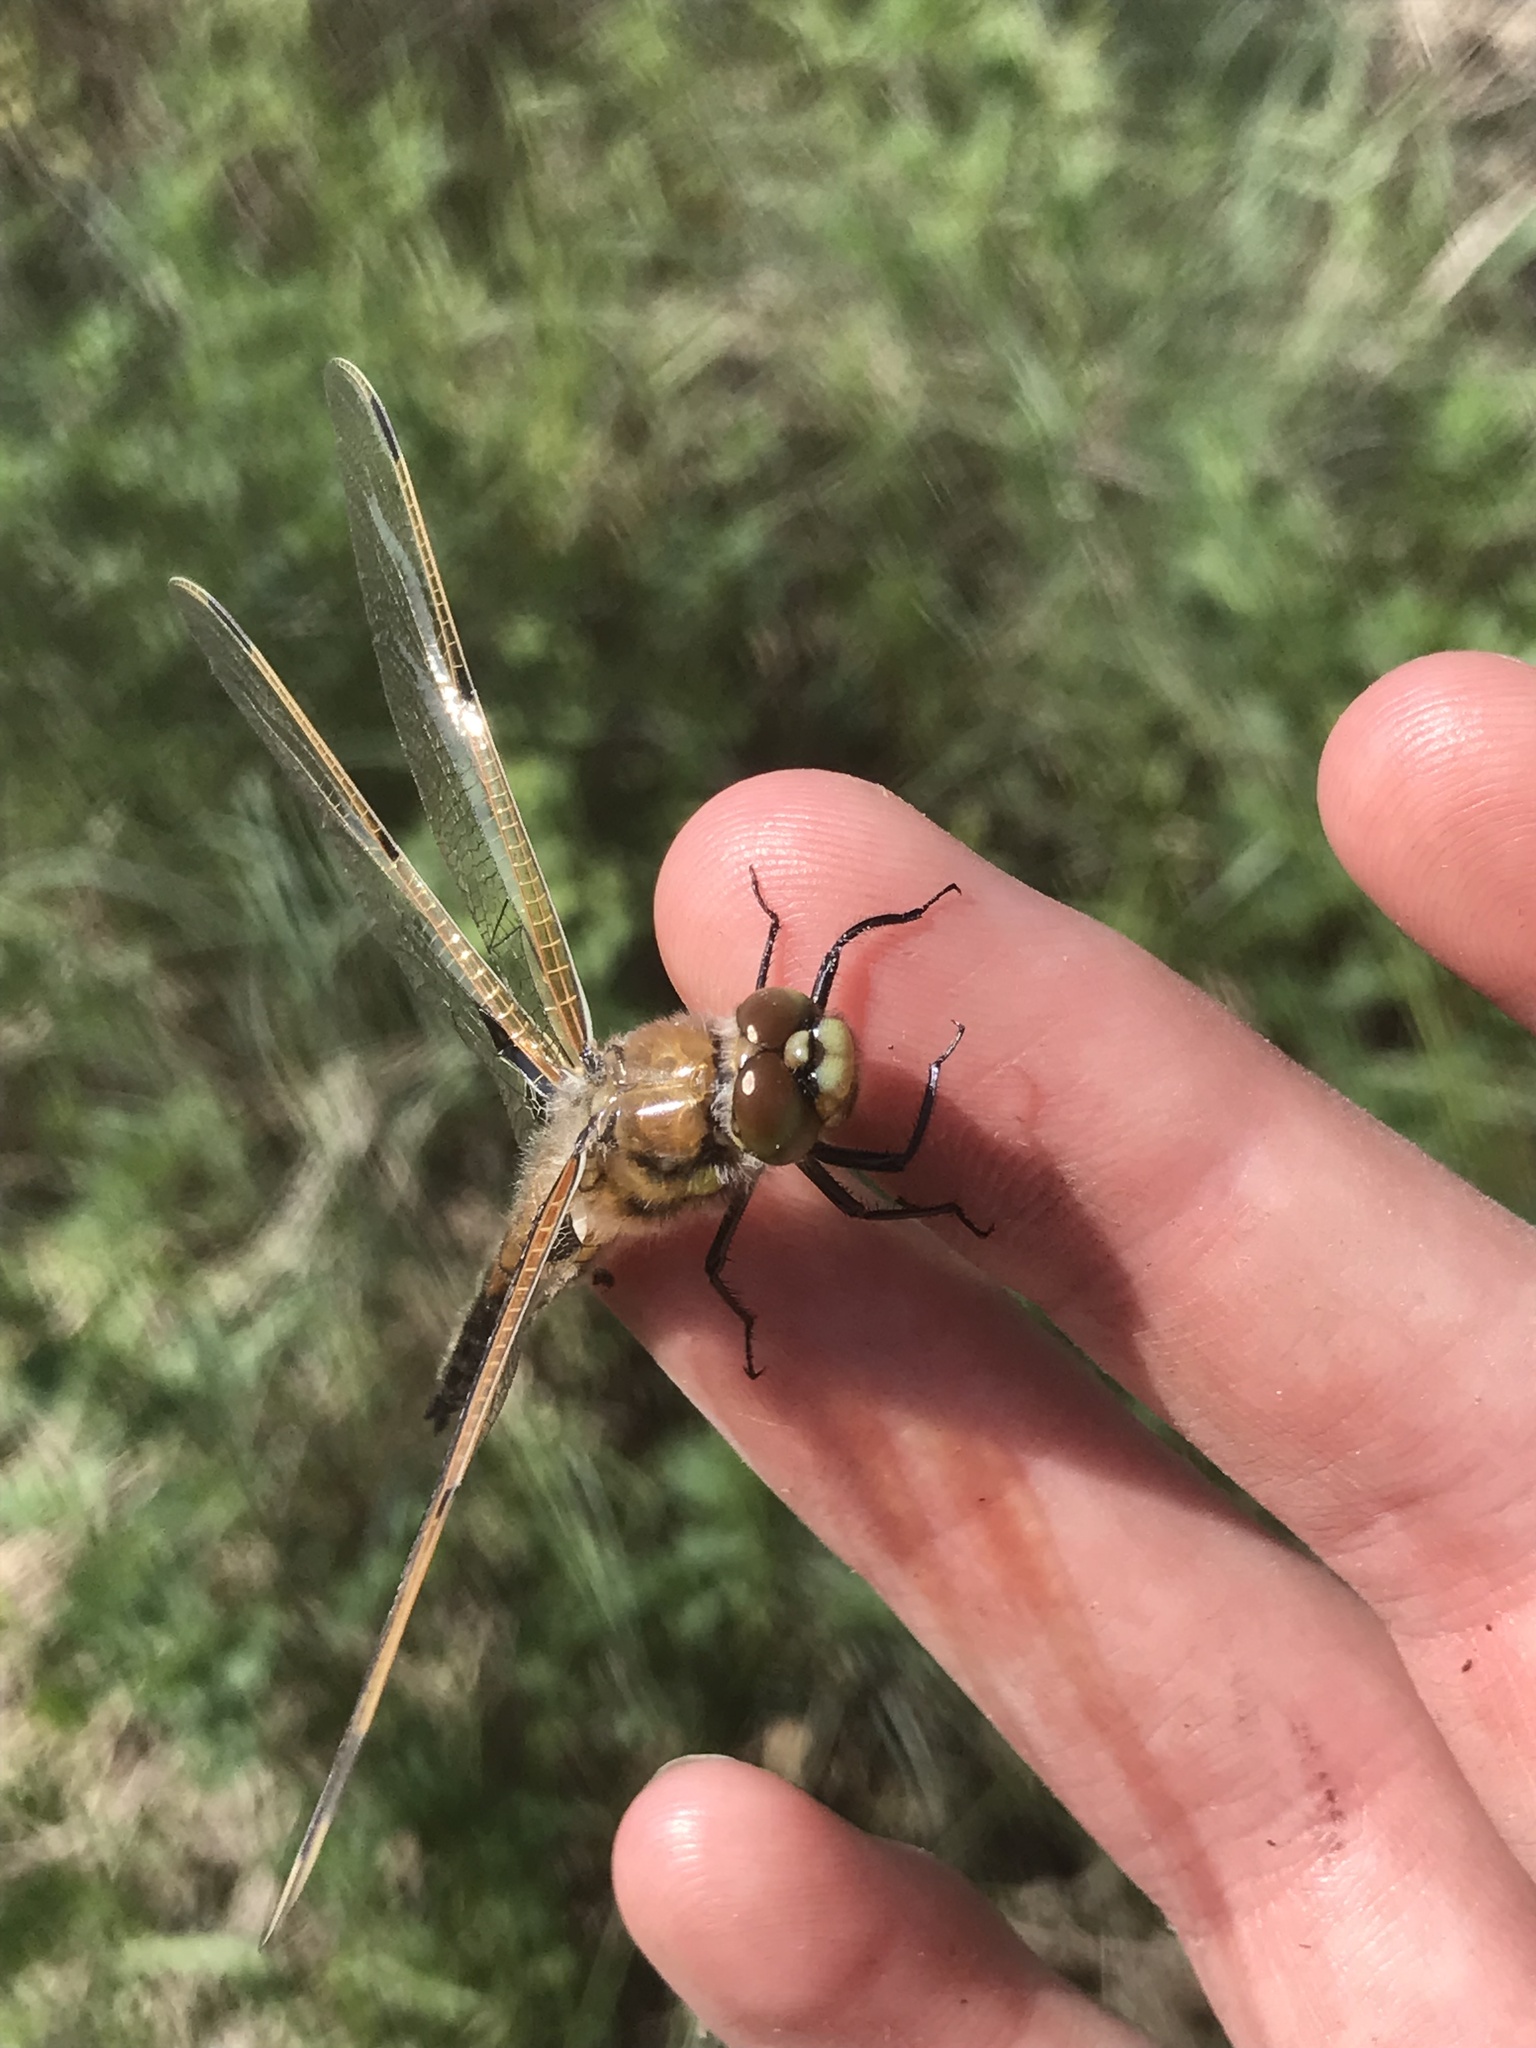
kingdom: Animalia
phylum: Arthropoda
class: Insecta
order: Odonata
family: Libellulidae
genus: Libellula
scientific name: Libellula quadrimaculata
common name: Four-spotted chaser
